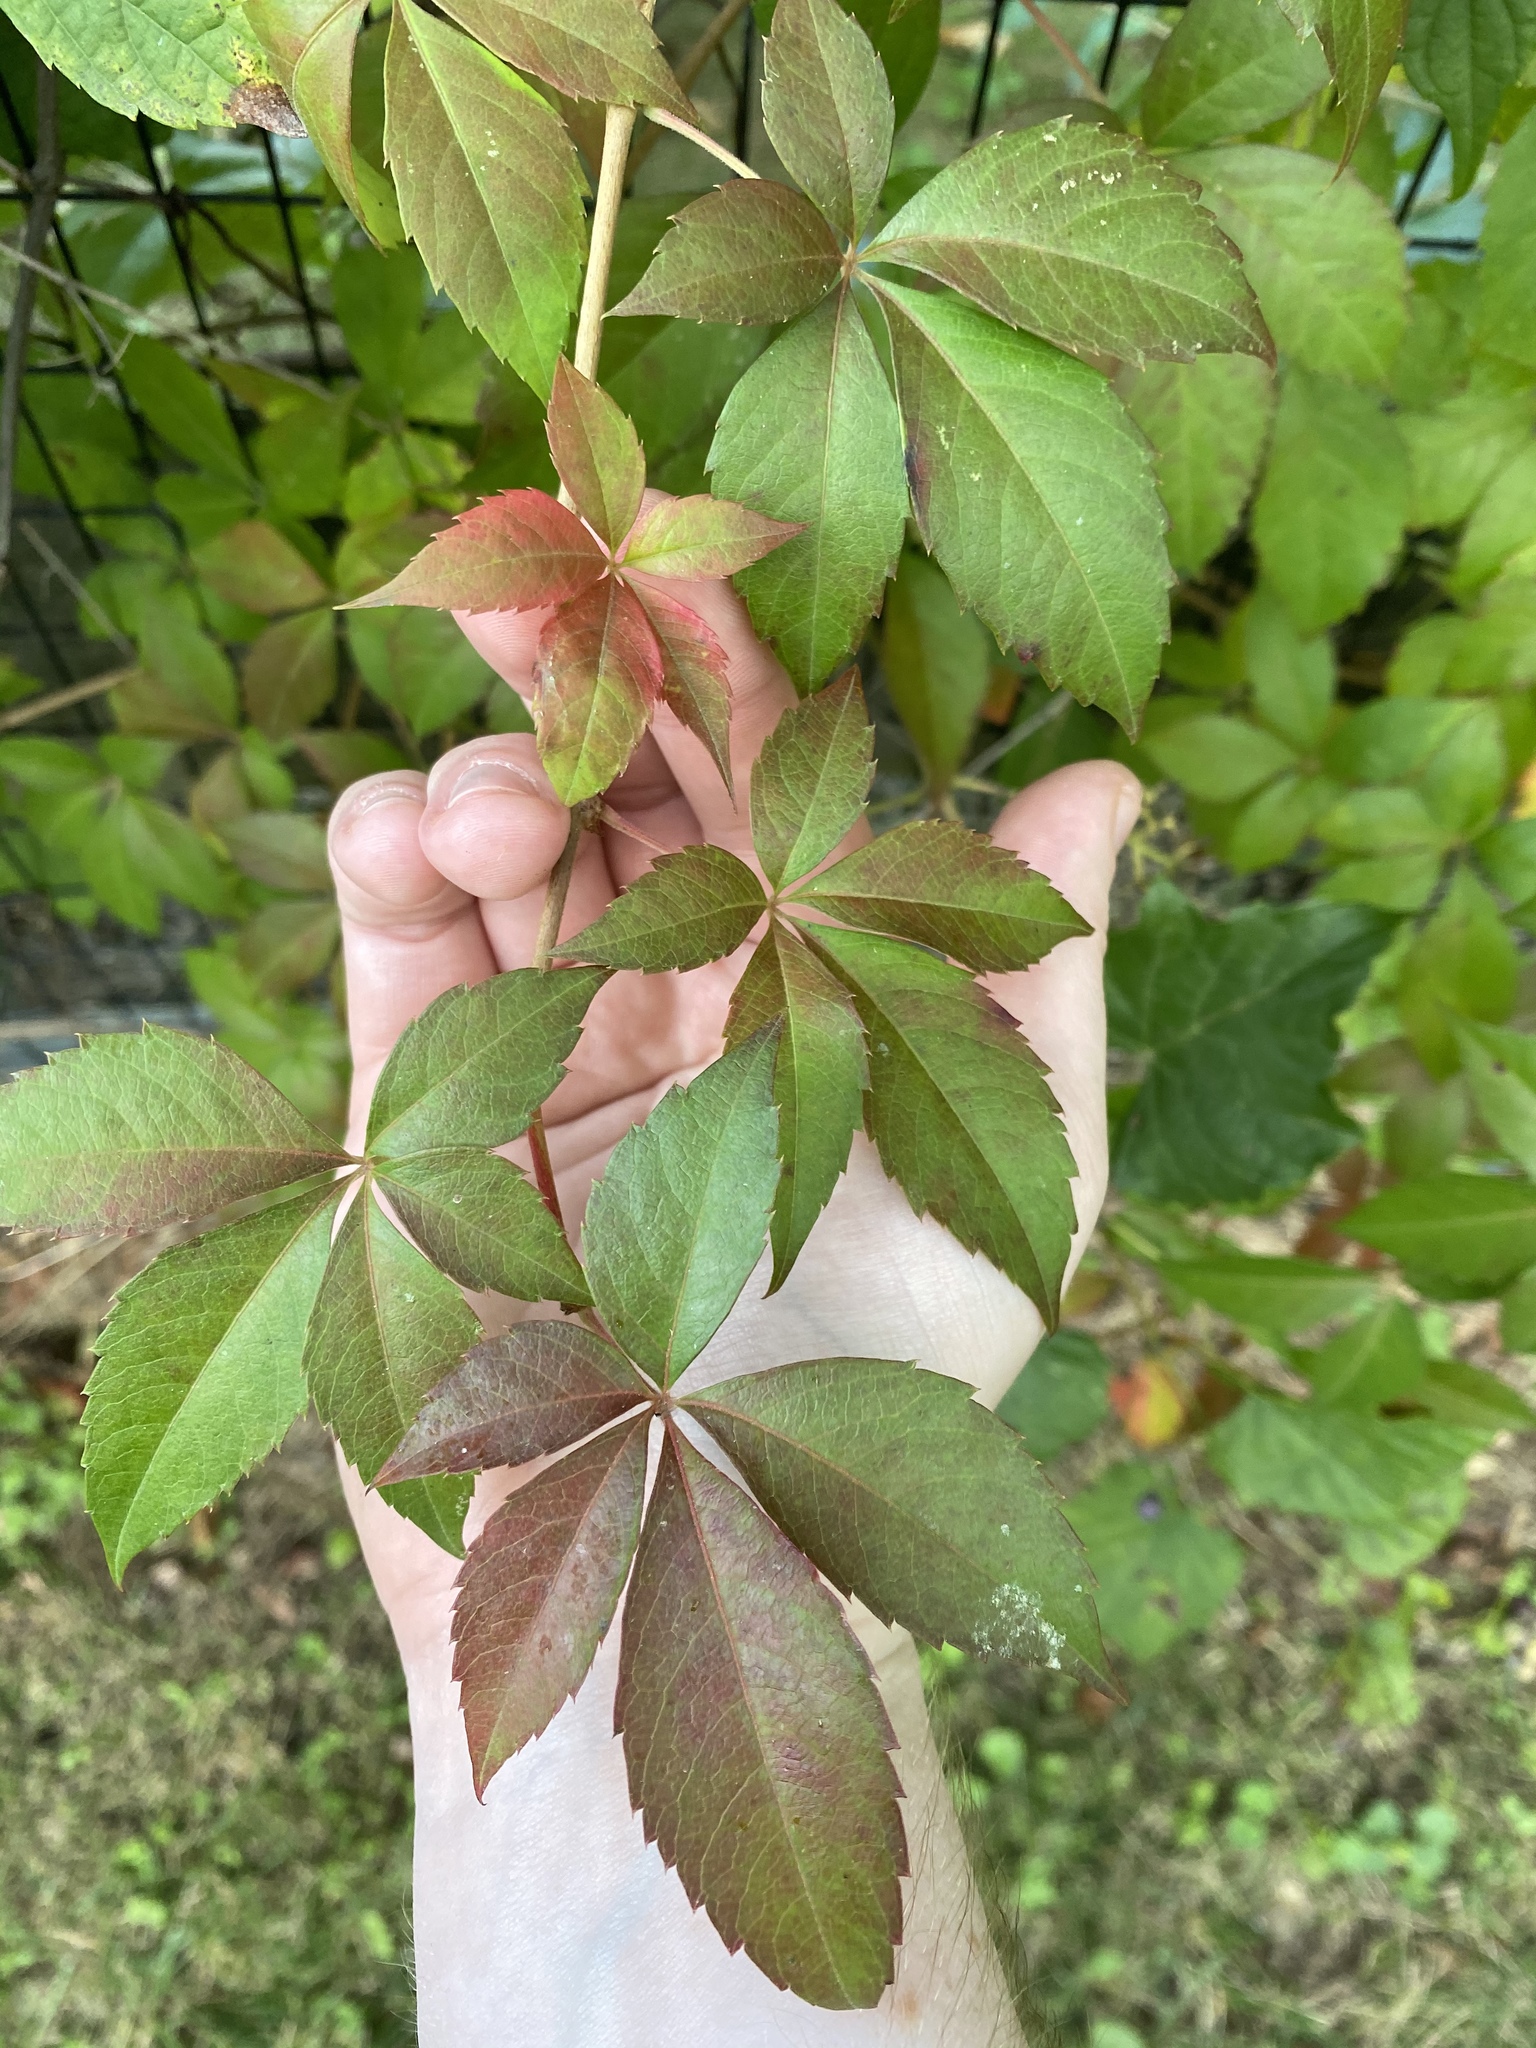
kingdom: Plantae
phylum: Tracheophyta
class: Magnoliopsida
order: Vitales
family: Vitaceae
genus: Parthenocissus
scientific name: Parthenocissus quinquefolia
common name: Virginia-creeper
